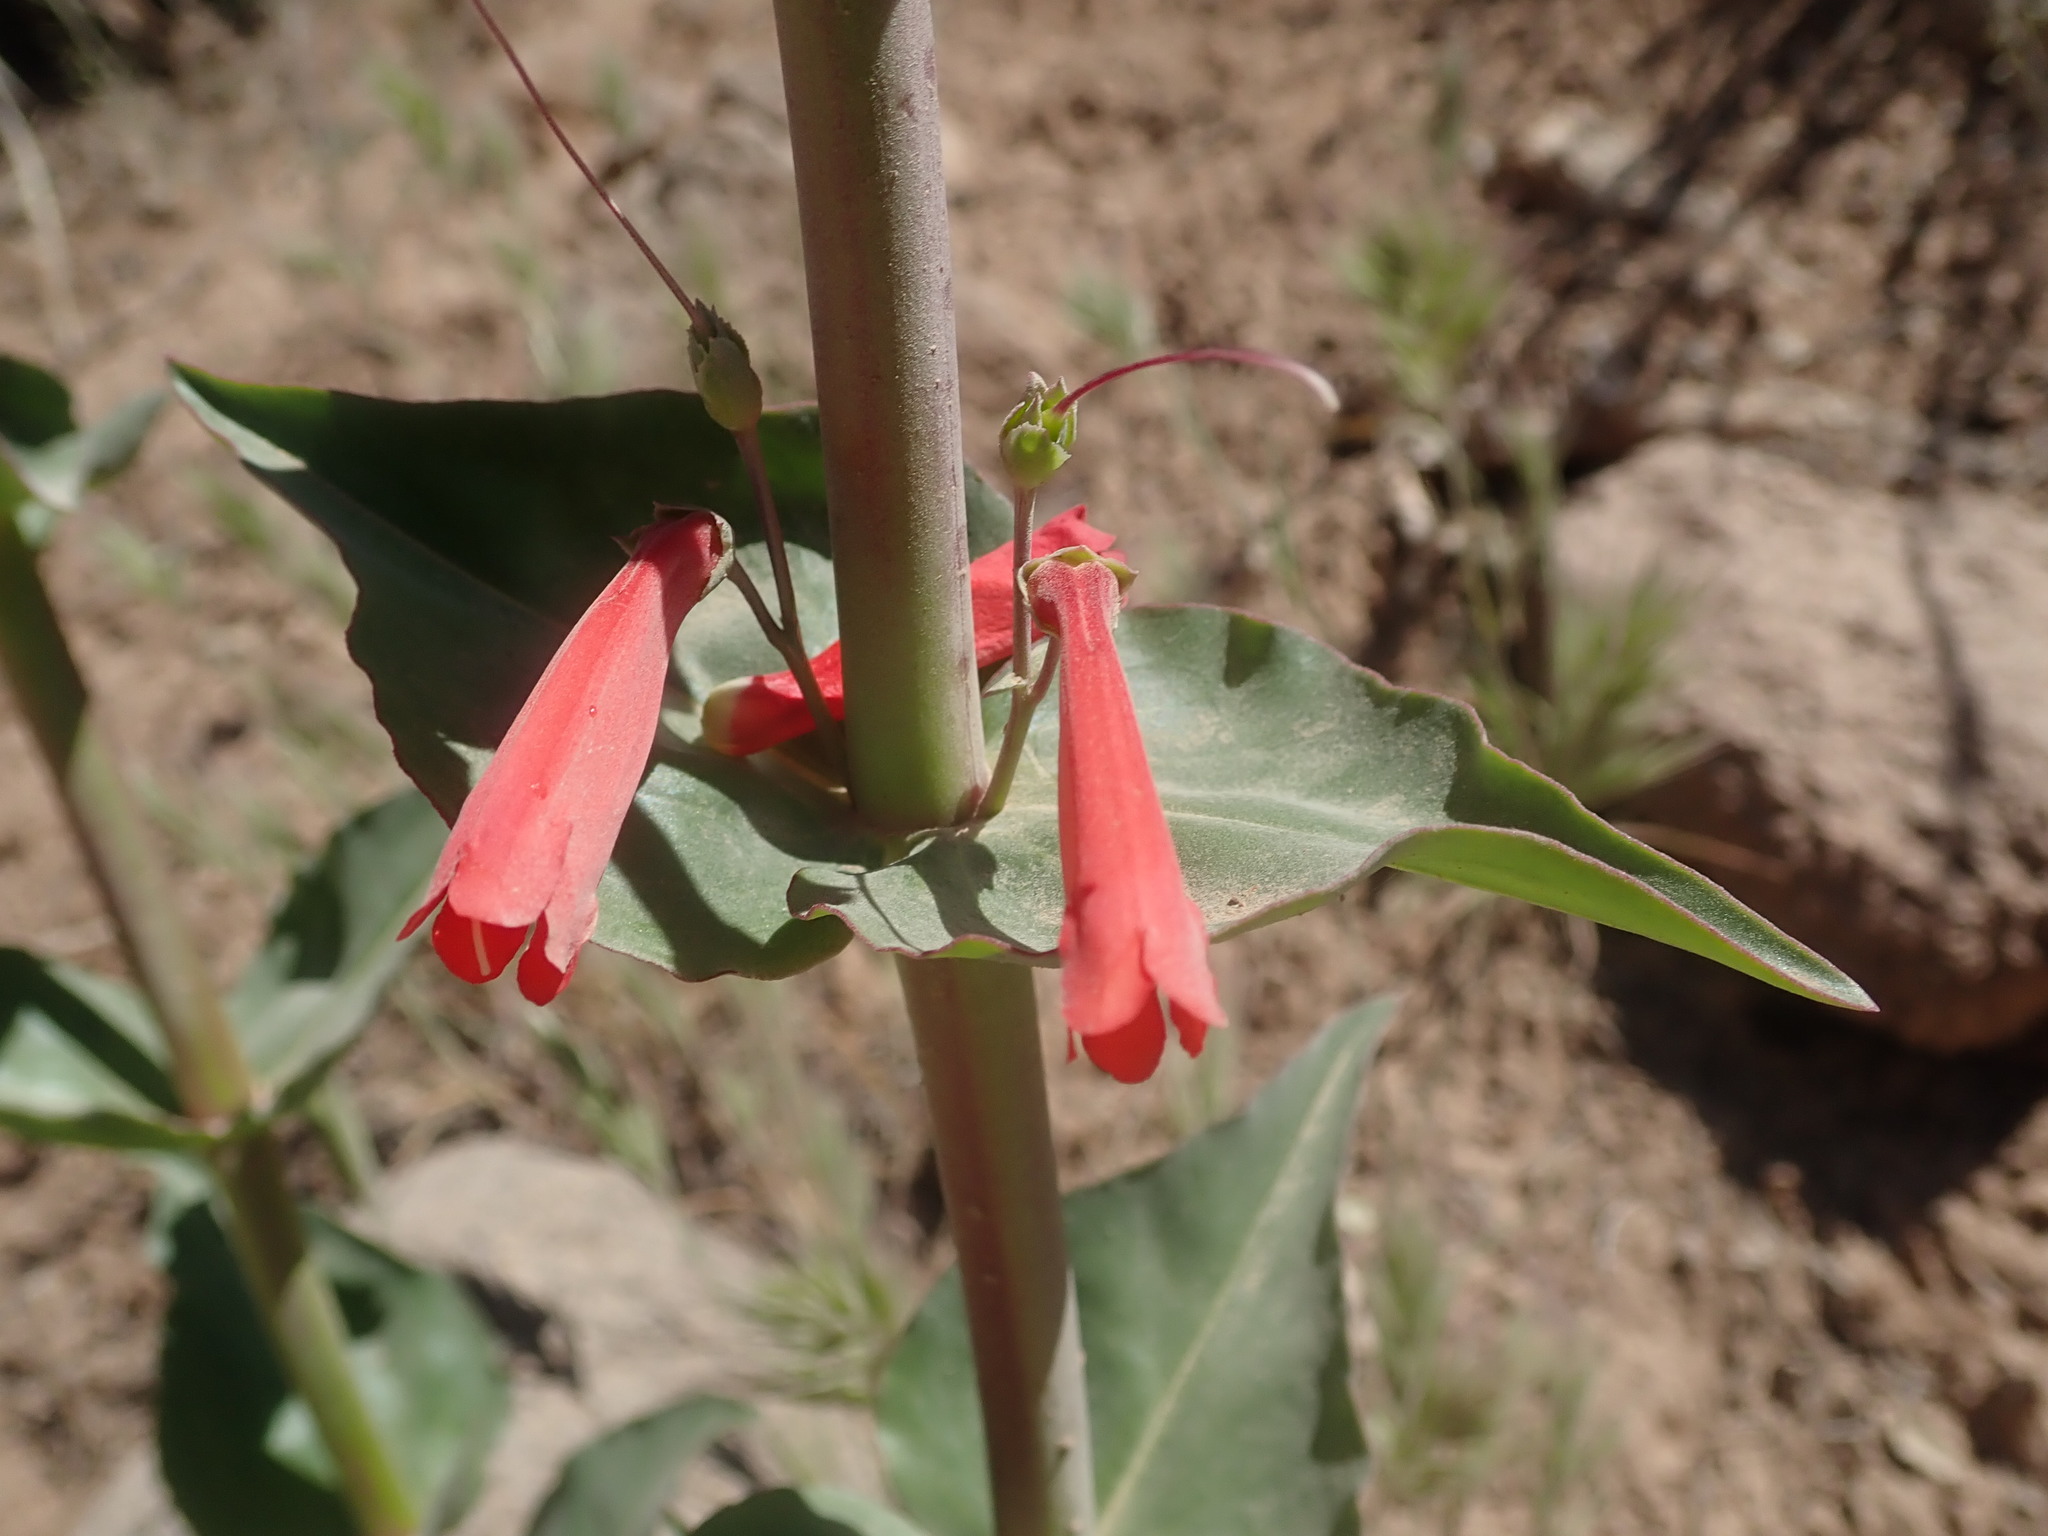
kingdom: Plantae
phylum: Tracheophyta
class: Magnoliopsida
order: Lamiales
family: Plantaginaceae
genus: Penstemon
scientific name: Penstemon eatonii
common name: Eaton's penstemon
